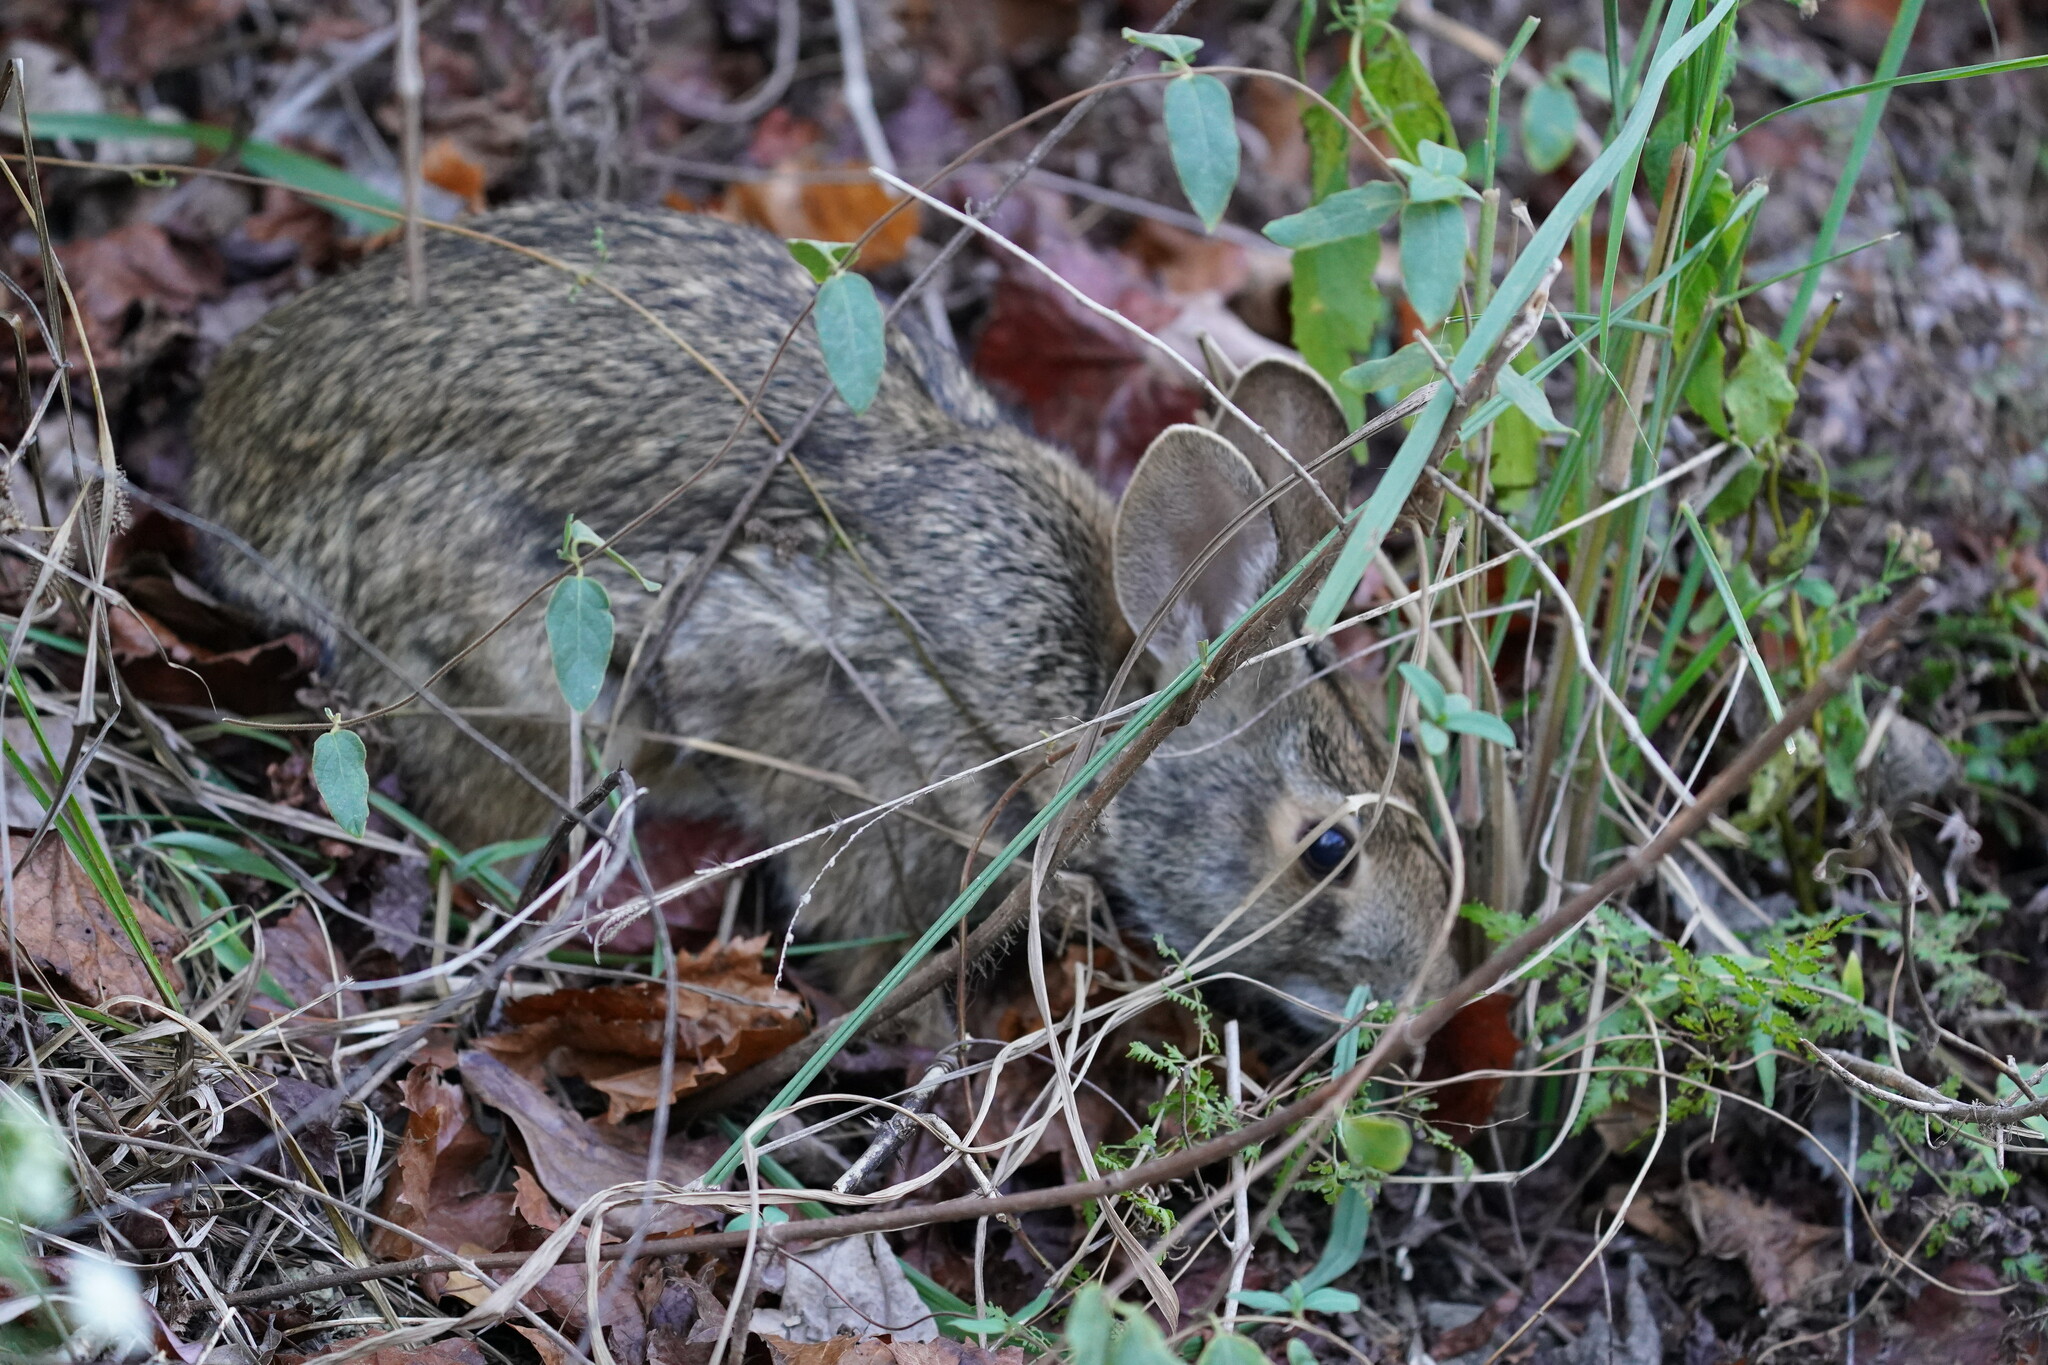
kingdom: Animalia
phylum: Chordata
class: Mammalia
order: Lagomorpha
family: Leporidae
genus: Sylvilagus
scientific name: Sylvilagus aquaticus
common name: Swamp rabbit
